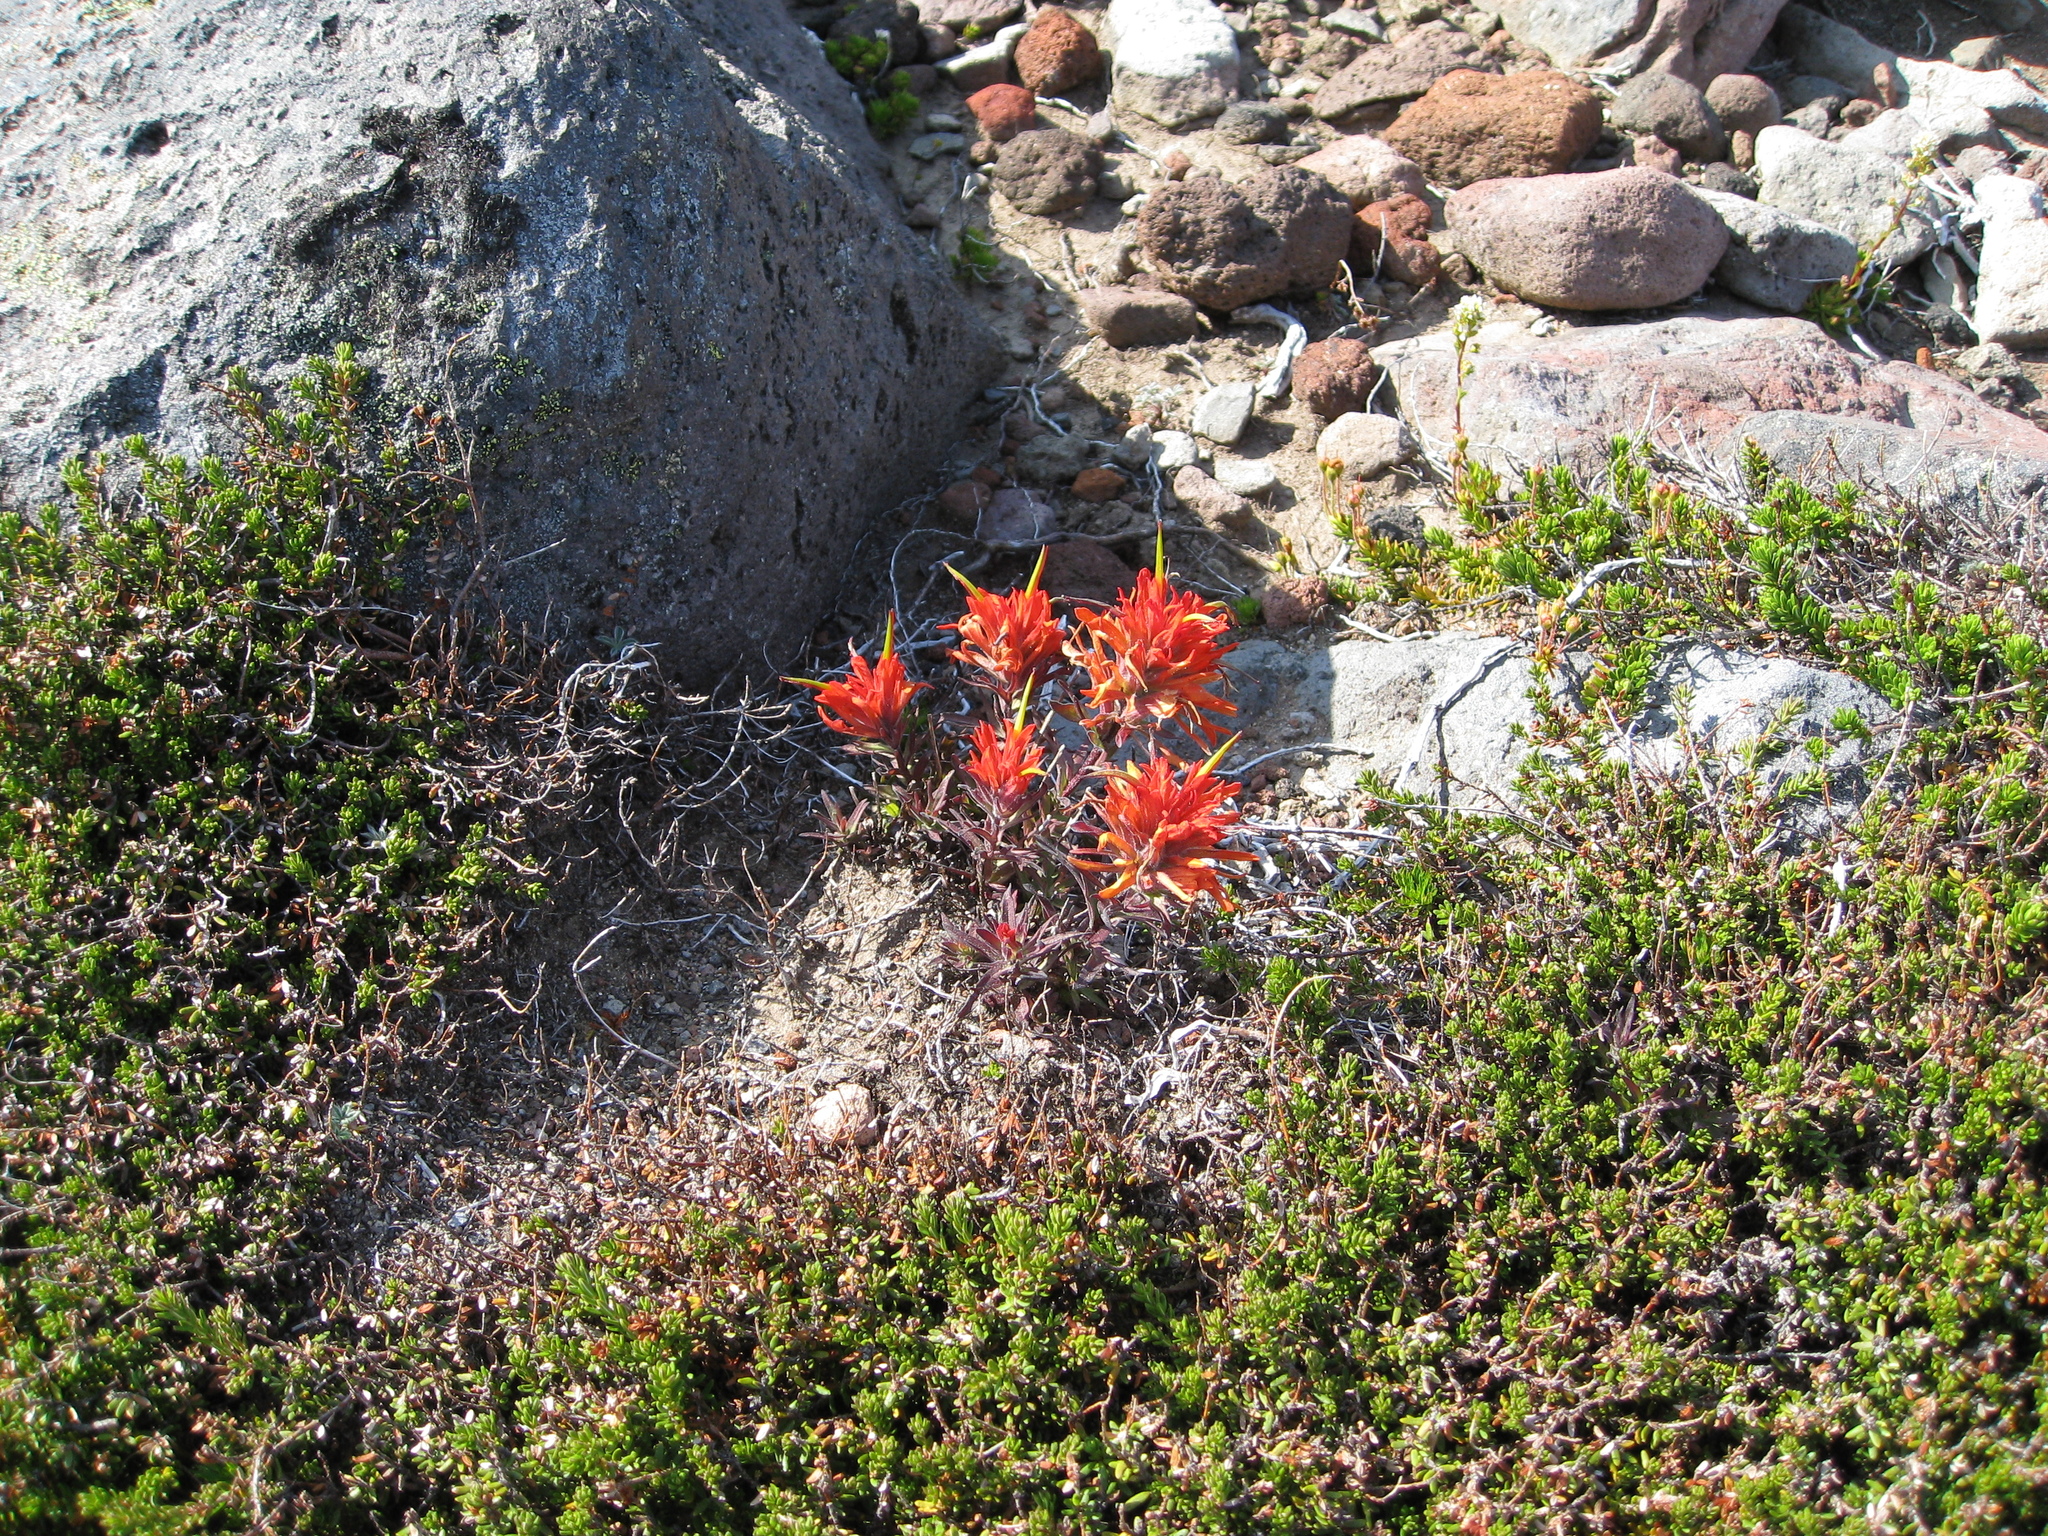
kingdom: Plantae
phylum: Tracheophyta
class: Magnoliopsida
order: Lamiales
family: Orobanchaceae
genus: Castilleja
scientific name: Castilleja rupicola
